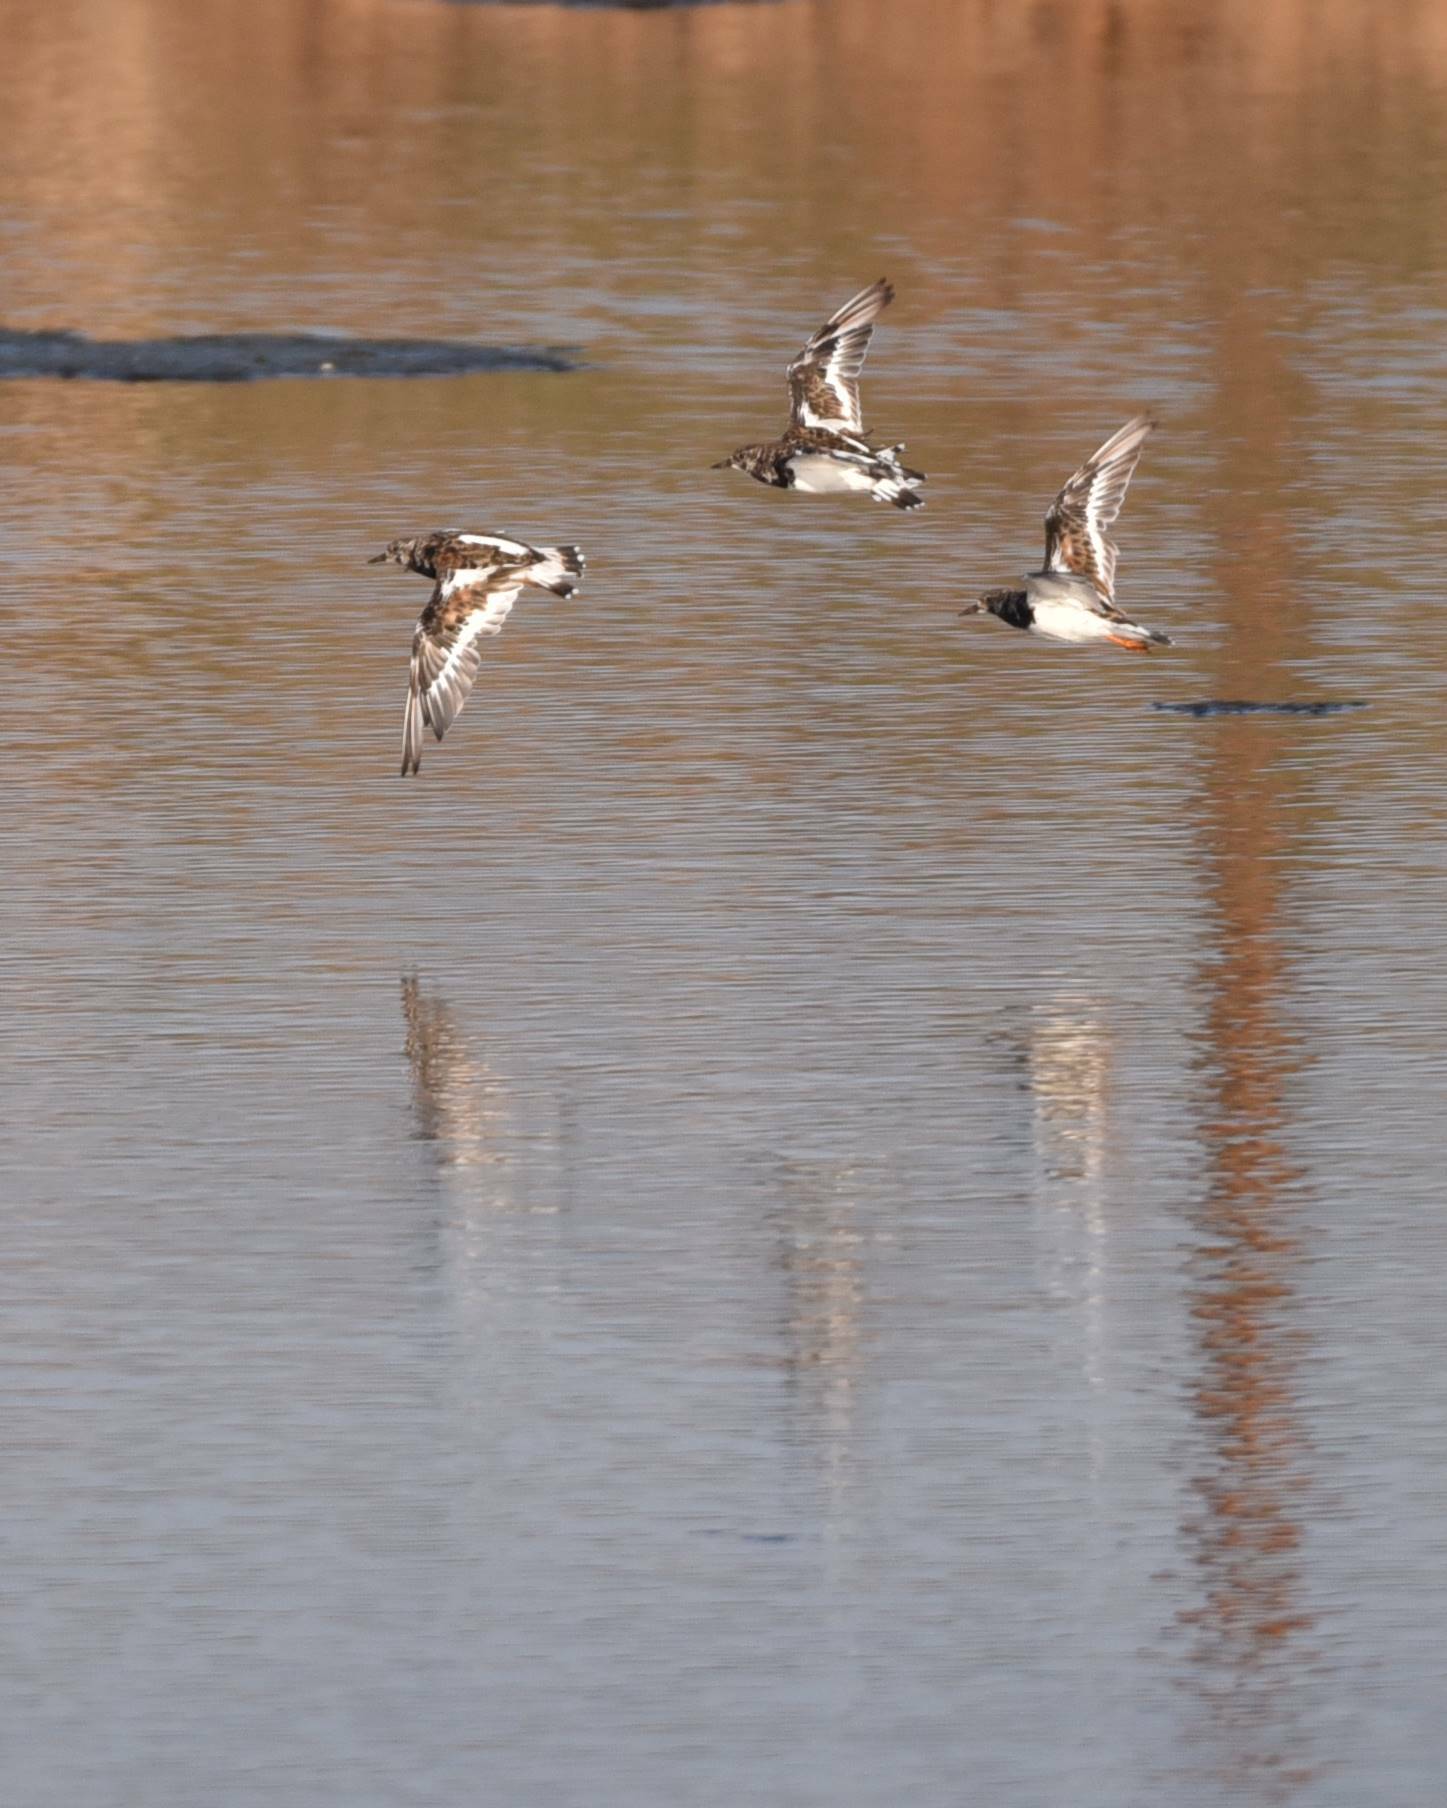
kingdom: Animalia
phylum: Chordata
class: Aves
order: Charadriiformes
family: Scolopacidae
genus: Arenaria
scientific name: Arenaria interpres
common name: Ruddy turnstone
